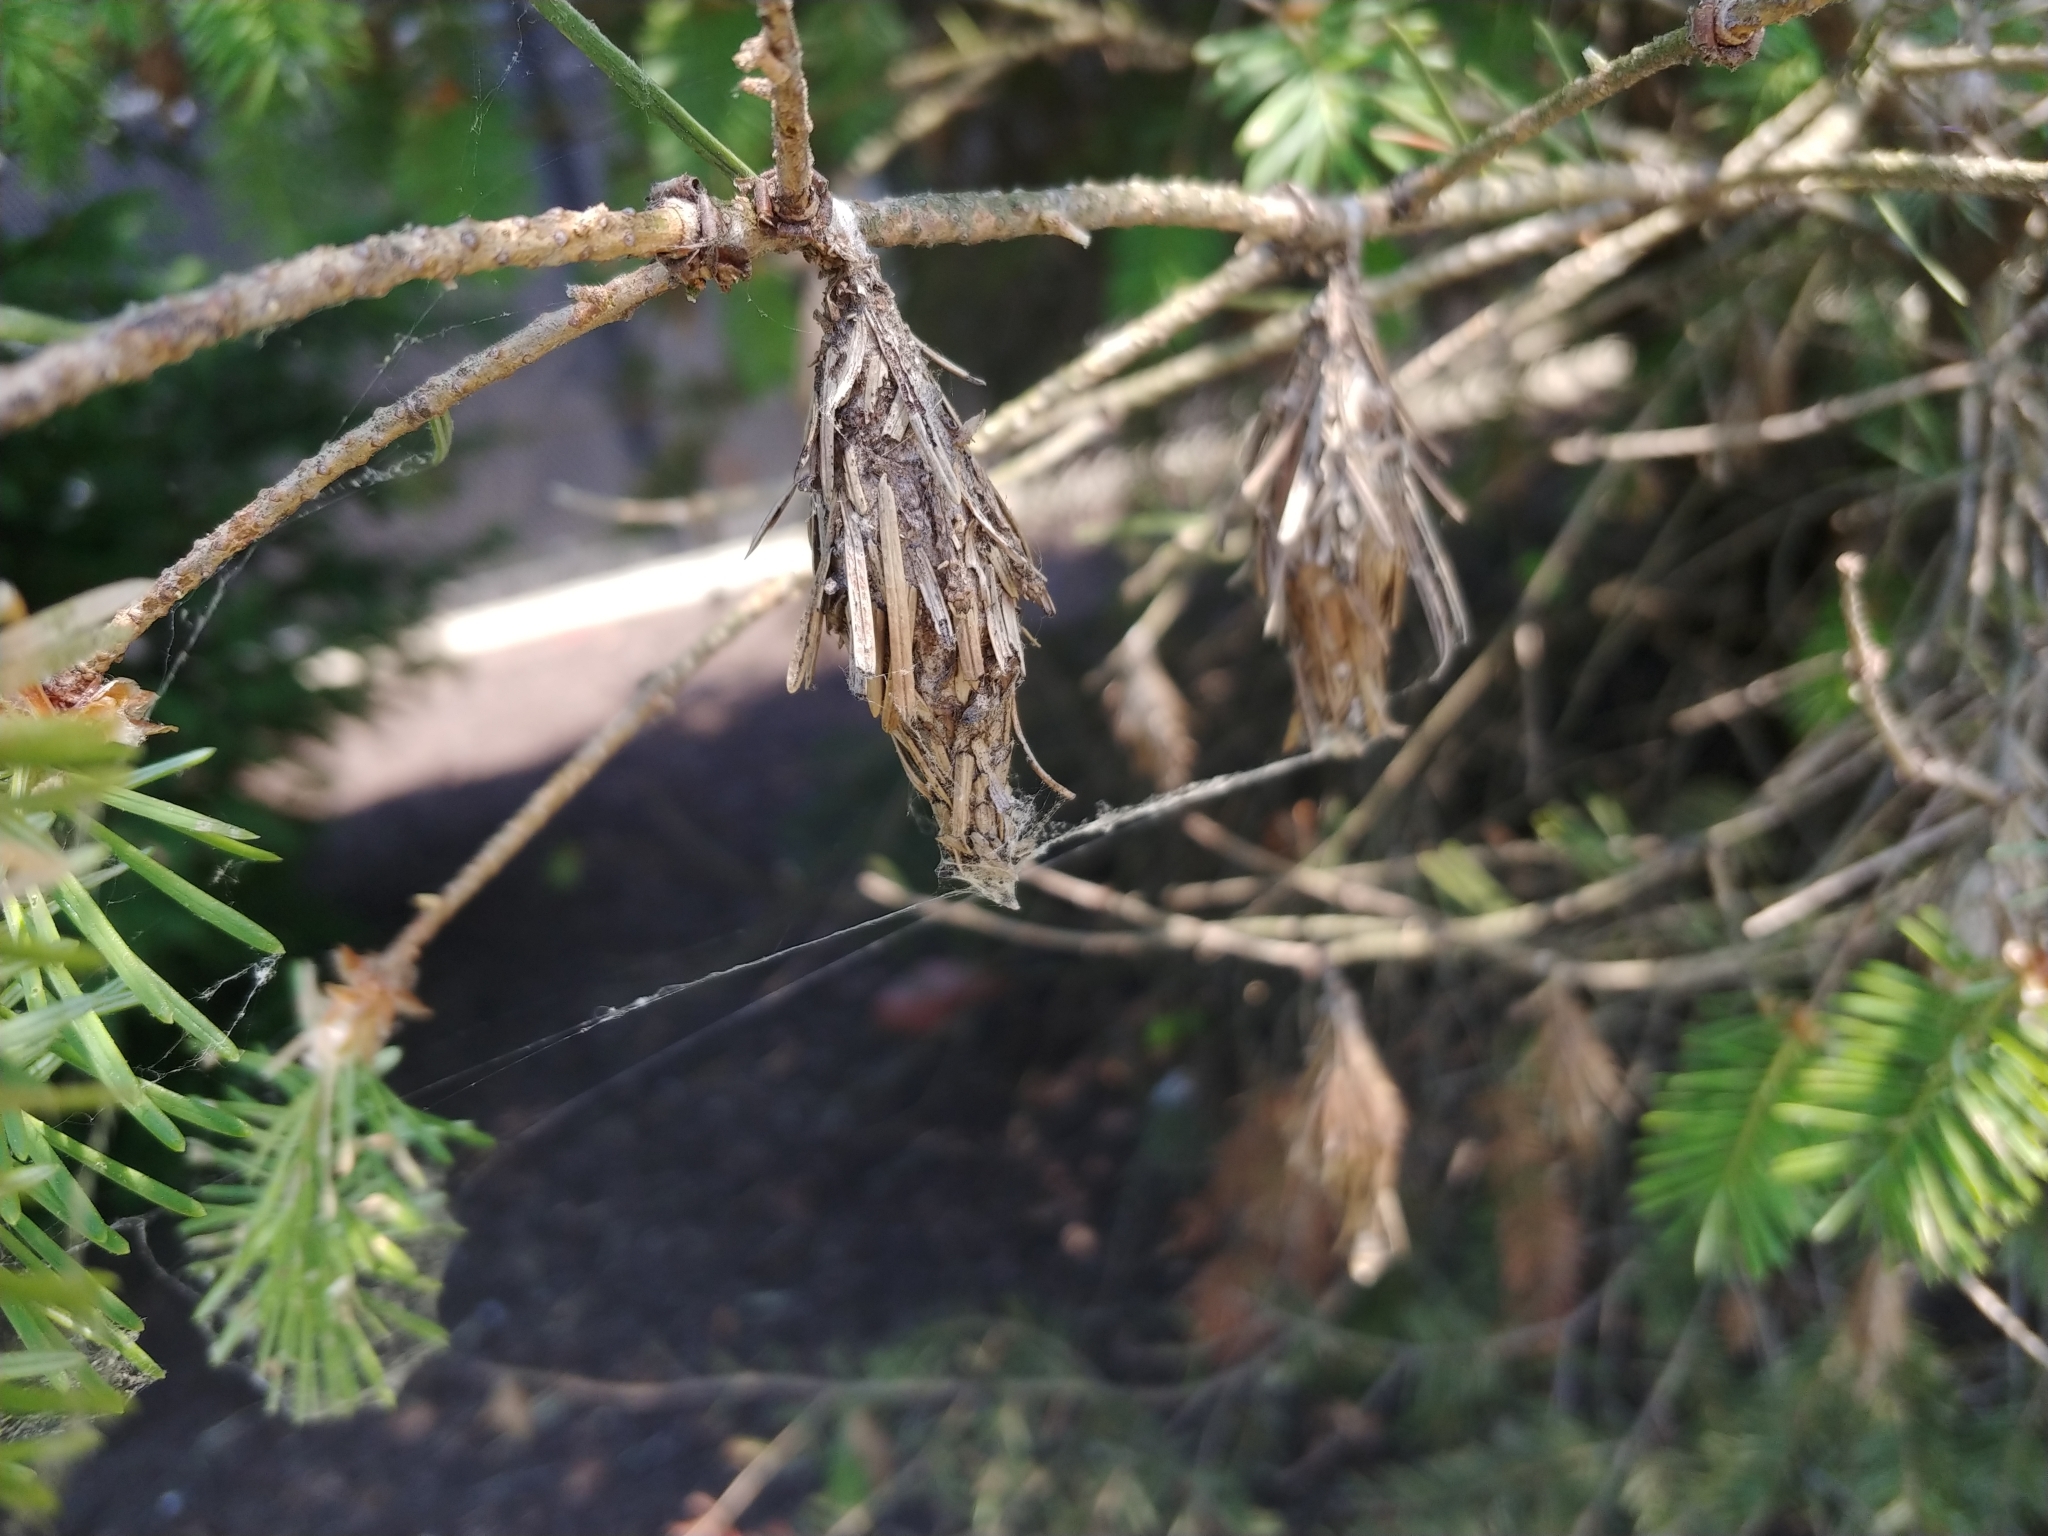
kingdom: Animalia
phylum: Arthropoda
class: Insecta
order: Lepidoptera
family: Psychidae
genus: Thyridopteryx
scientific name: Thyridopteryx ephemeraeformis
